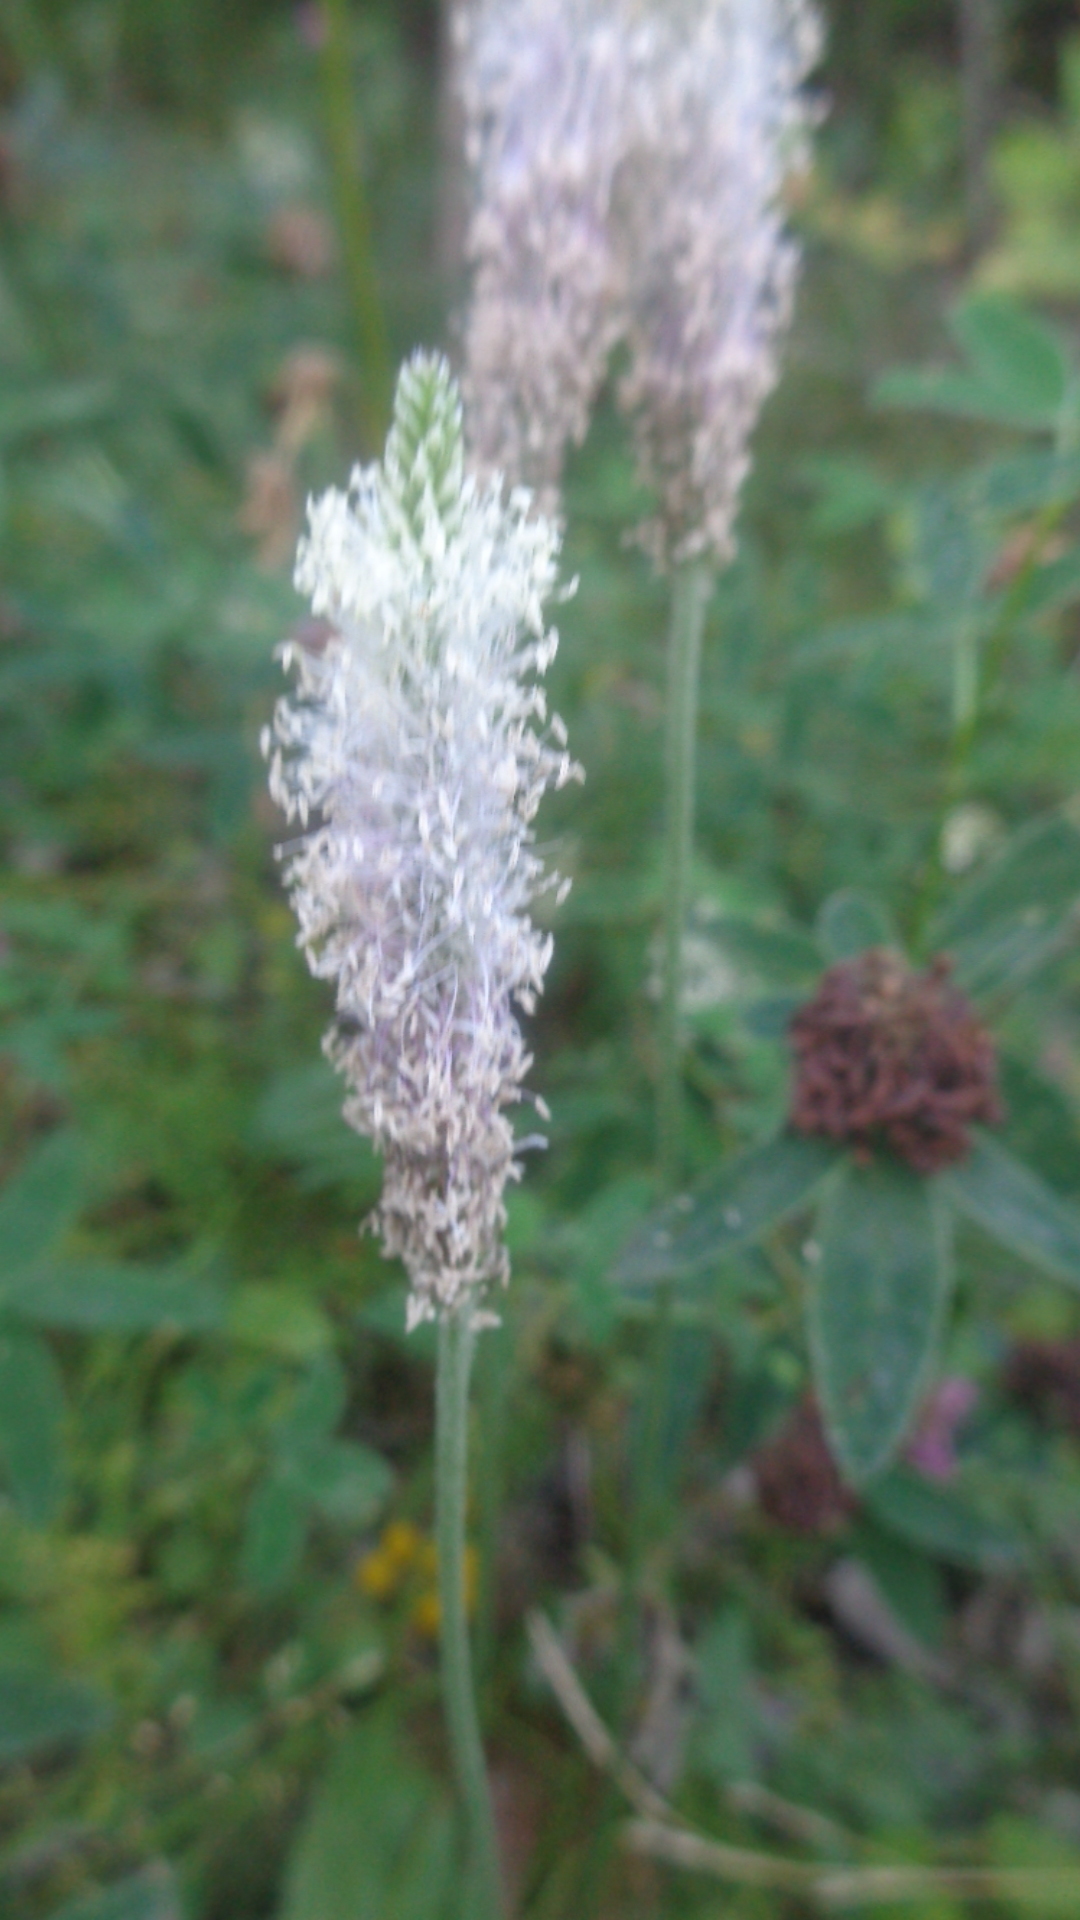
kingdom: Plantae
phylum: Tracheophyta
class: Magnoliopsida
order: Lamiales
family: Plantaginaceae
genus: Plantago
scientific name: Plantago media
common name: Hoary plantain
